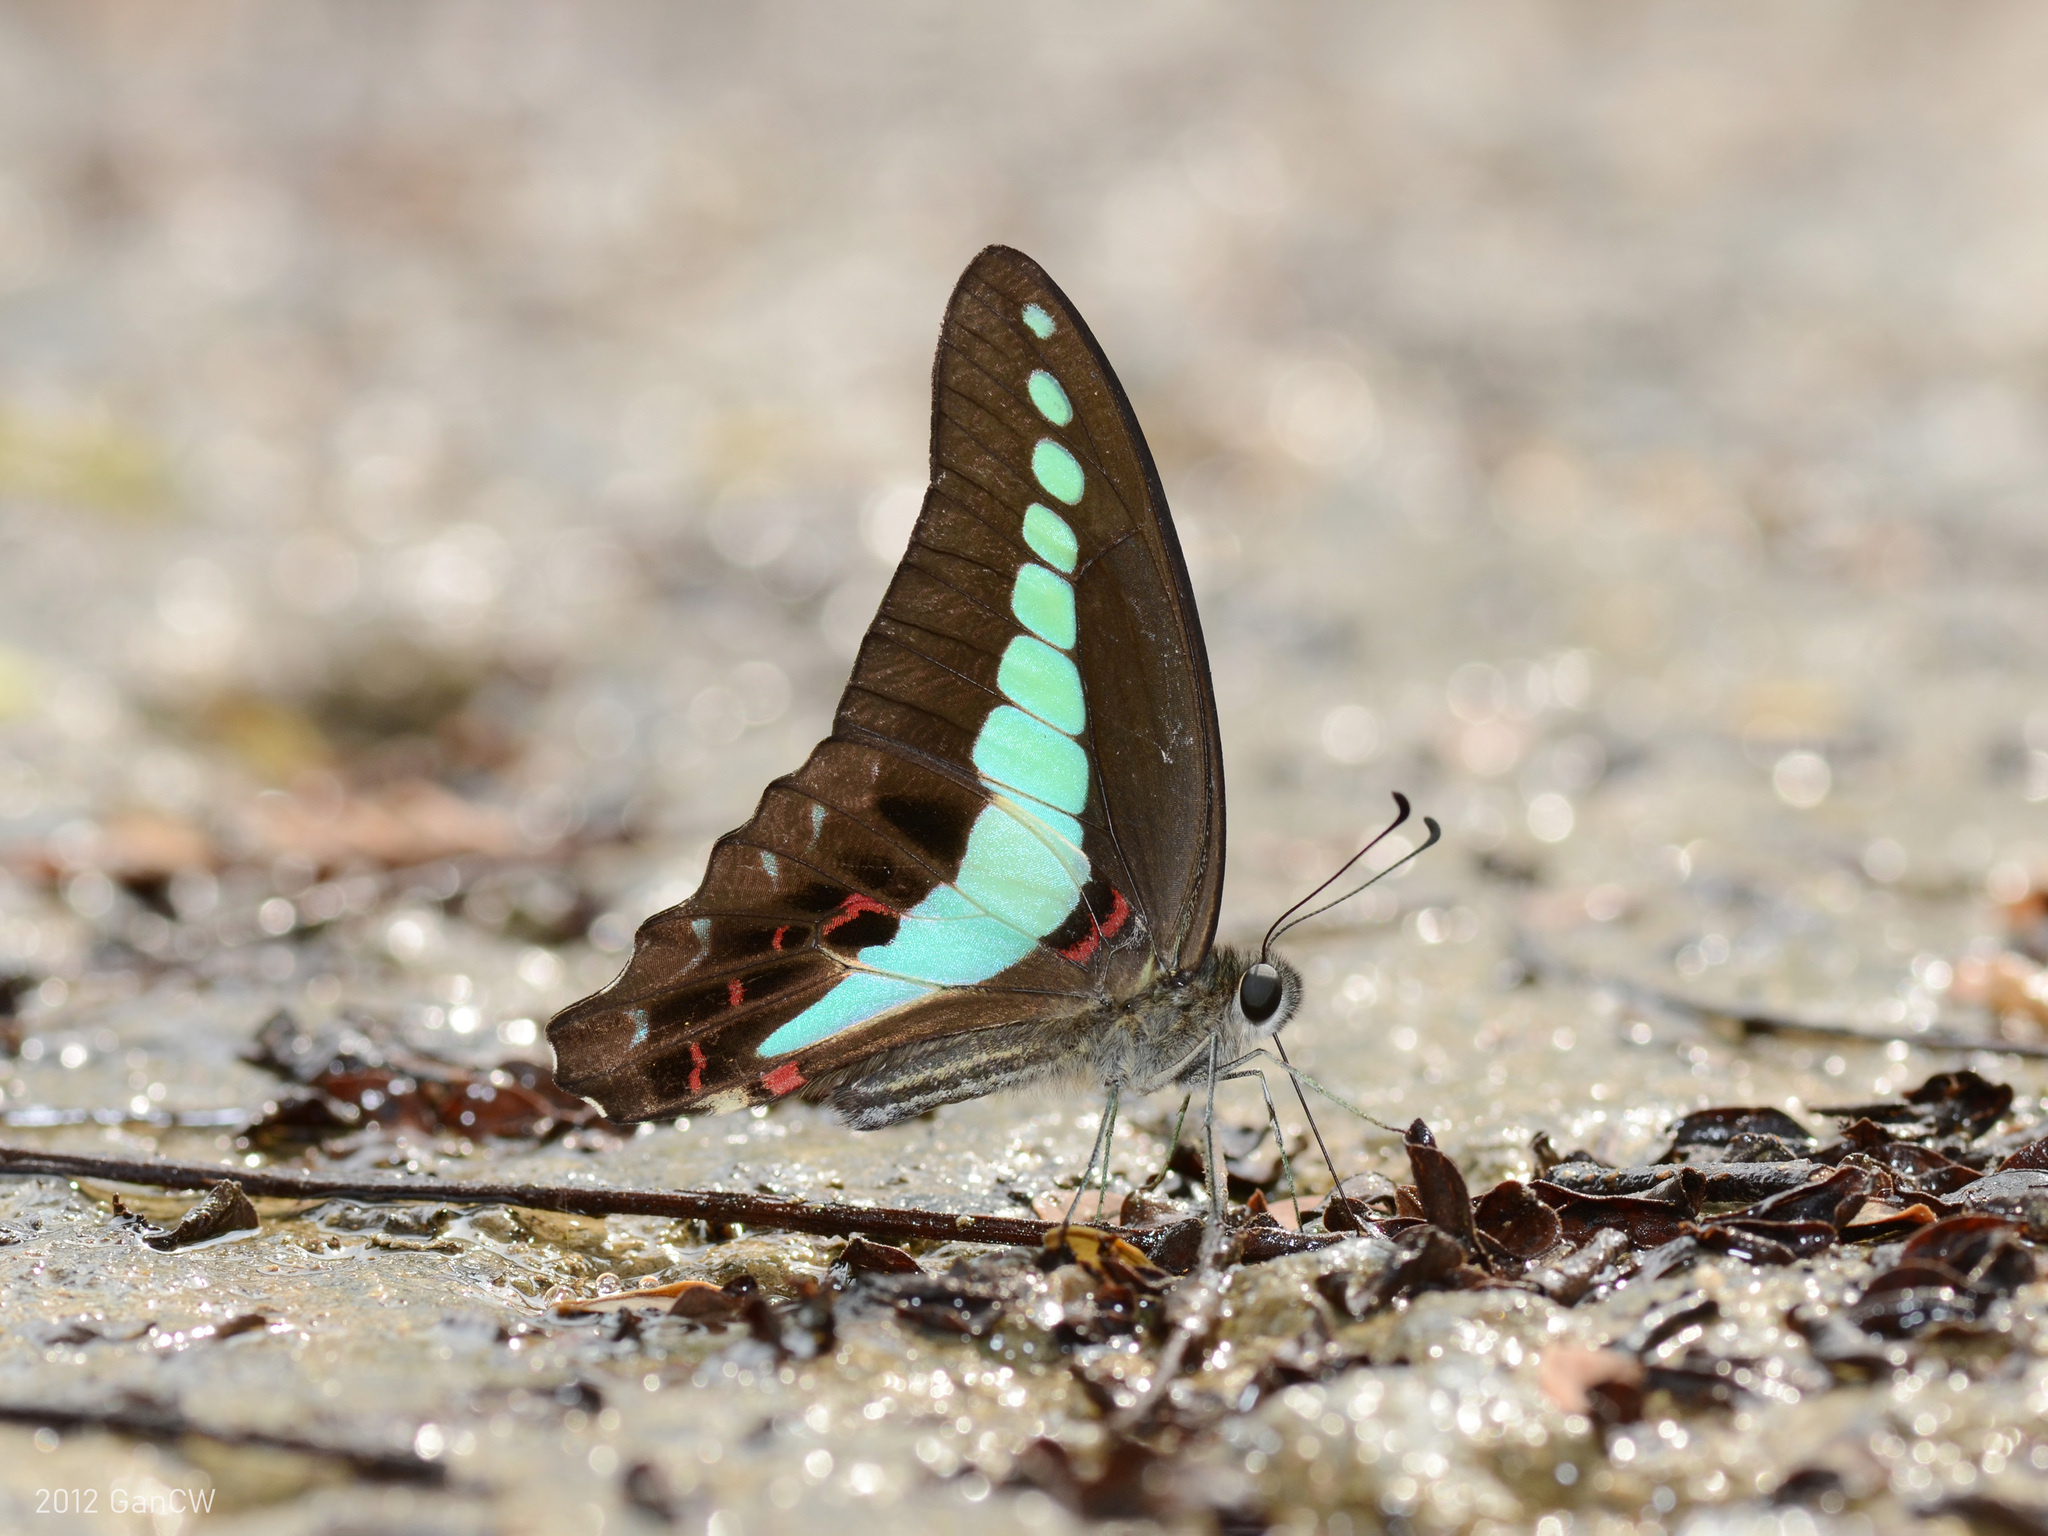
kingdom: Fungi
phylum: Ascomycota
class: Sordariomycetes
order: Microascales
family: Microascaceae
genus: Graphium
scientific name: Graphium sarpedon
